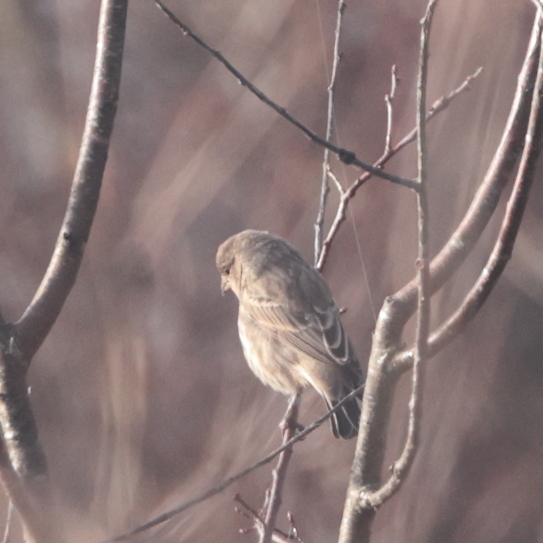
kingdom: Animalia
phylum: Chordata
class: Aves
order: Passeriformes
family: Fringillidae
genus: Haemorhous
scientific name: Haemorhous mexicanus
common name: House finch
